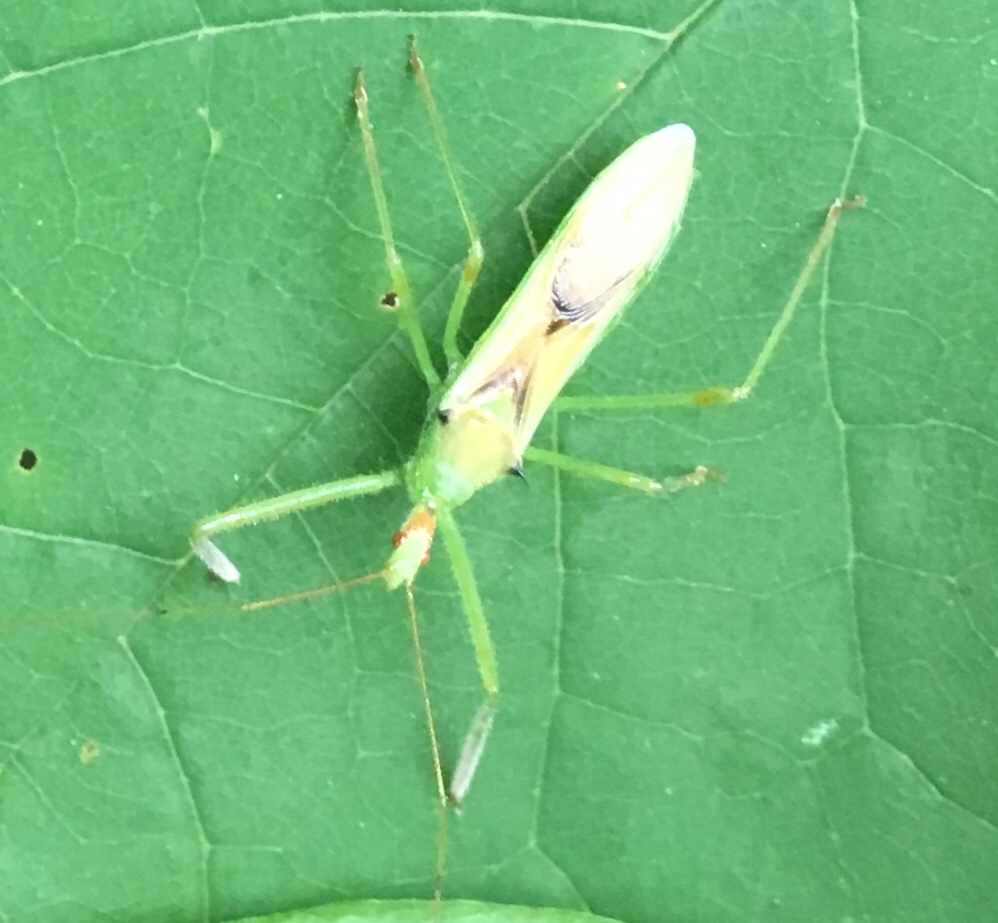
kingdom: Animalia
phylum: Arthropoda
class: Insecta
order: Hemiptera
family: Reduviidae
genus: Zelus
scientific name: Zelus luridus
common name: Pale green assassin bug
